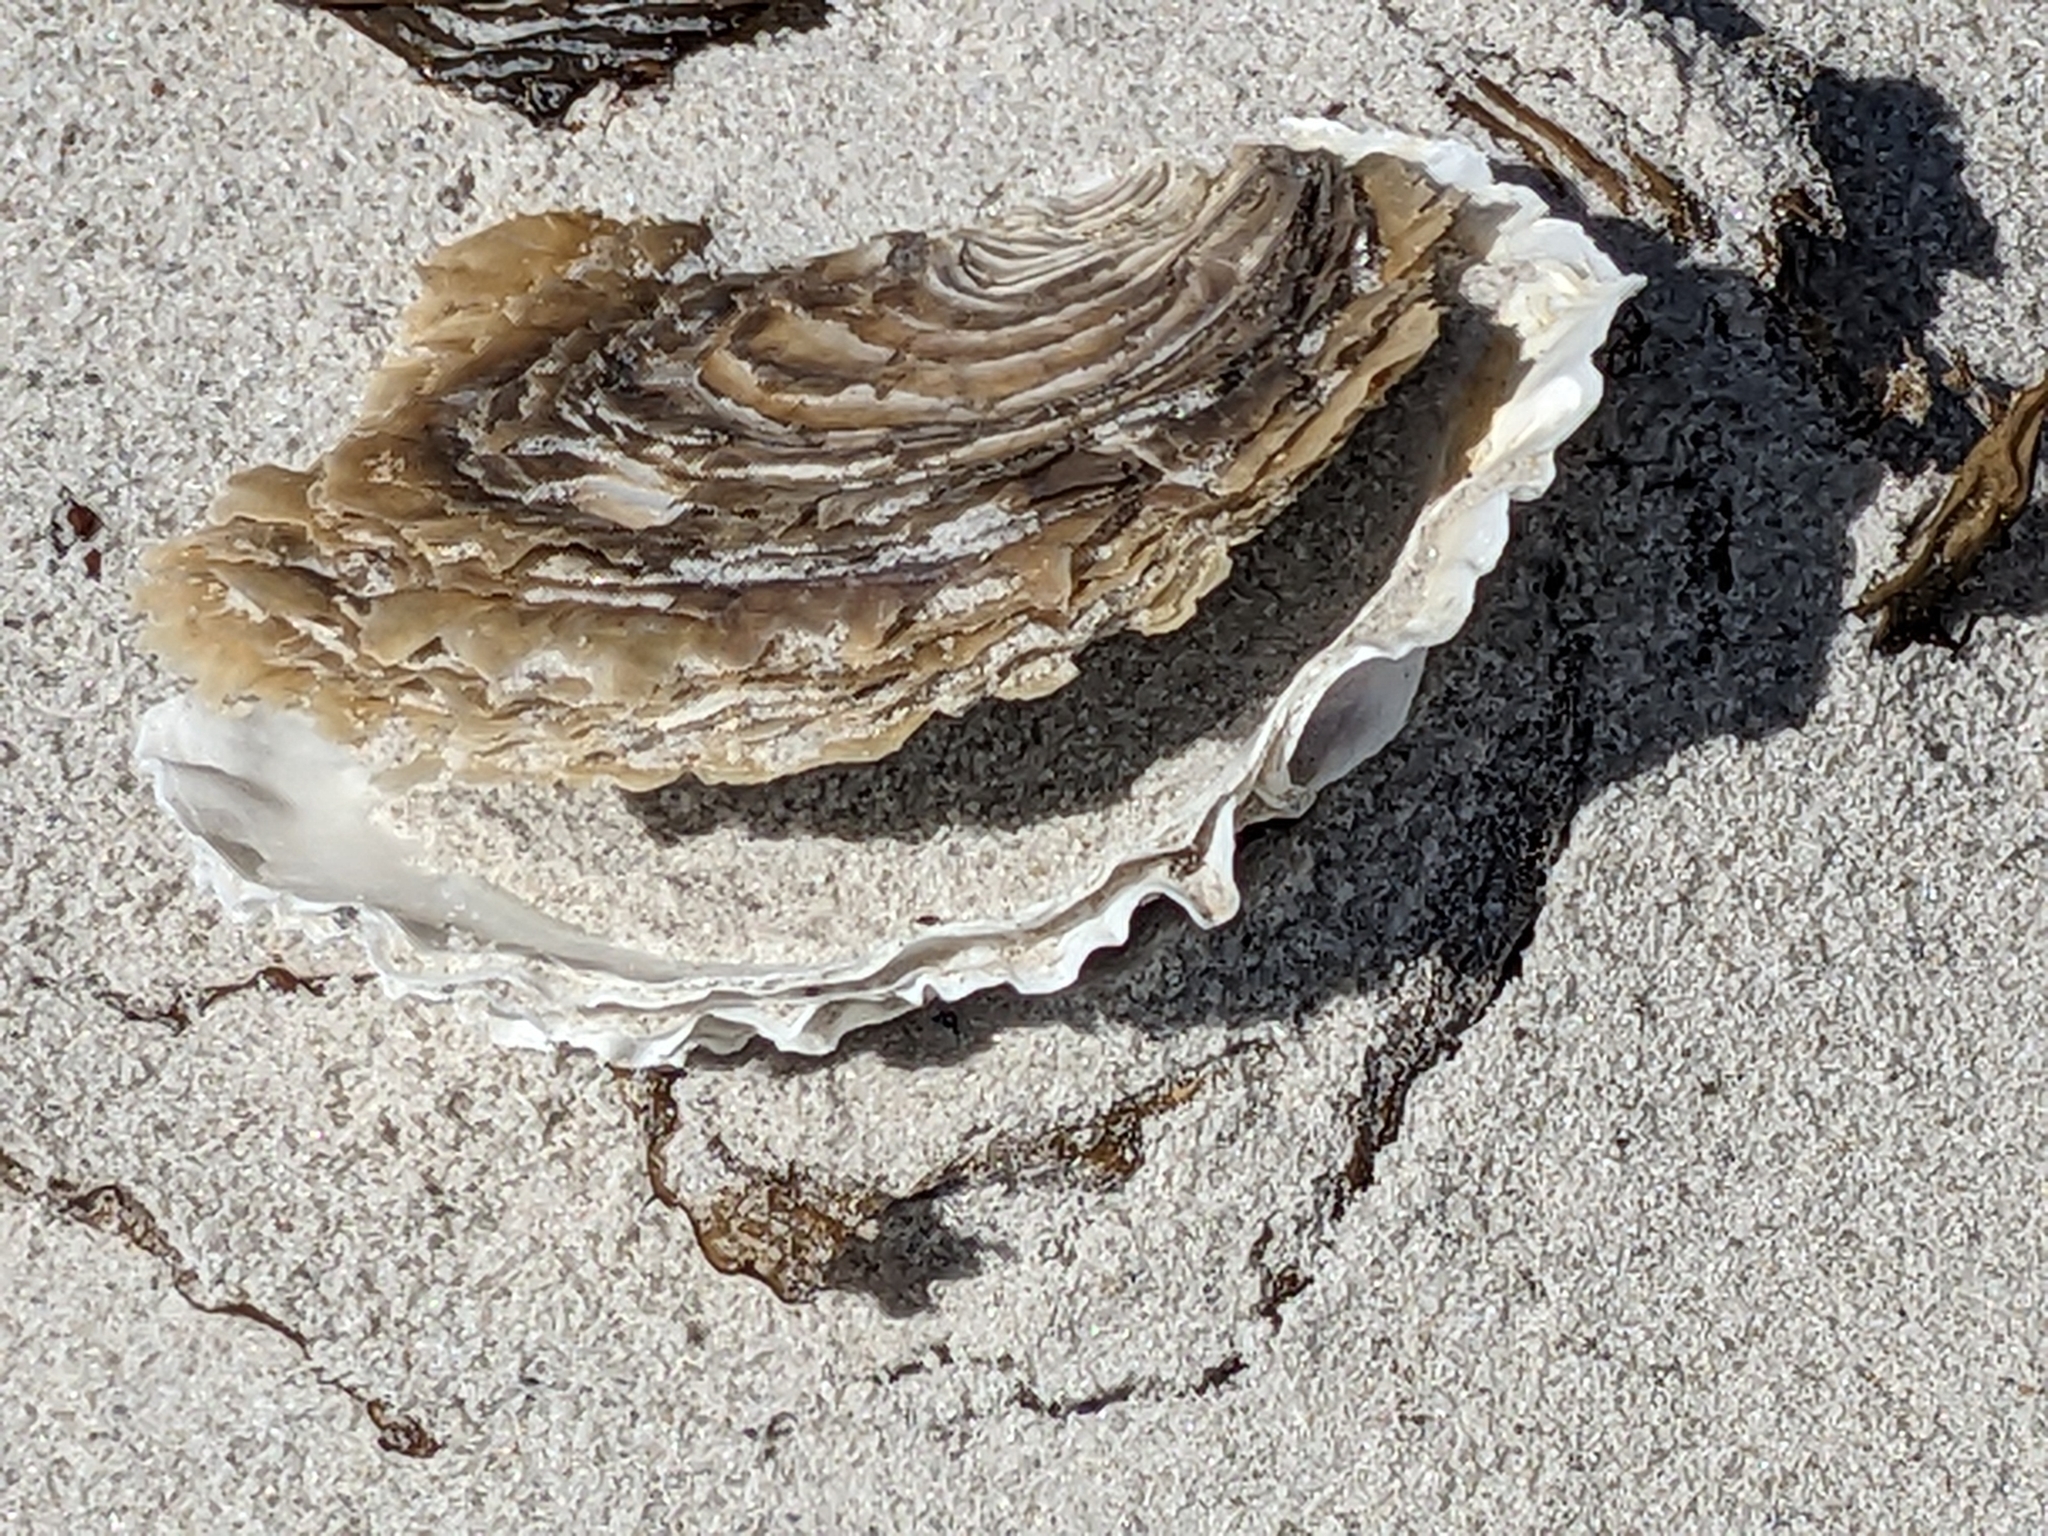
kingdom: Animalia
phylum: Mollusca
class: Bivalvia
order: Ostreida
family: Ostreidae
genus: Ostrea
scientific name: Ostrea angasi
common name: Angasi oyster
